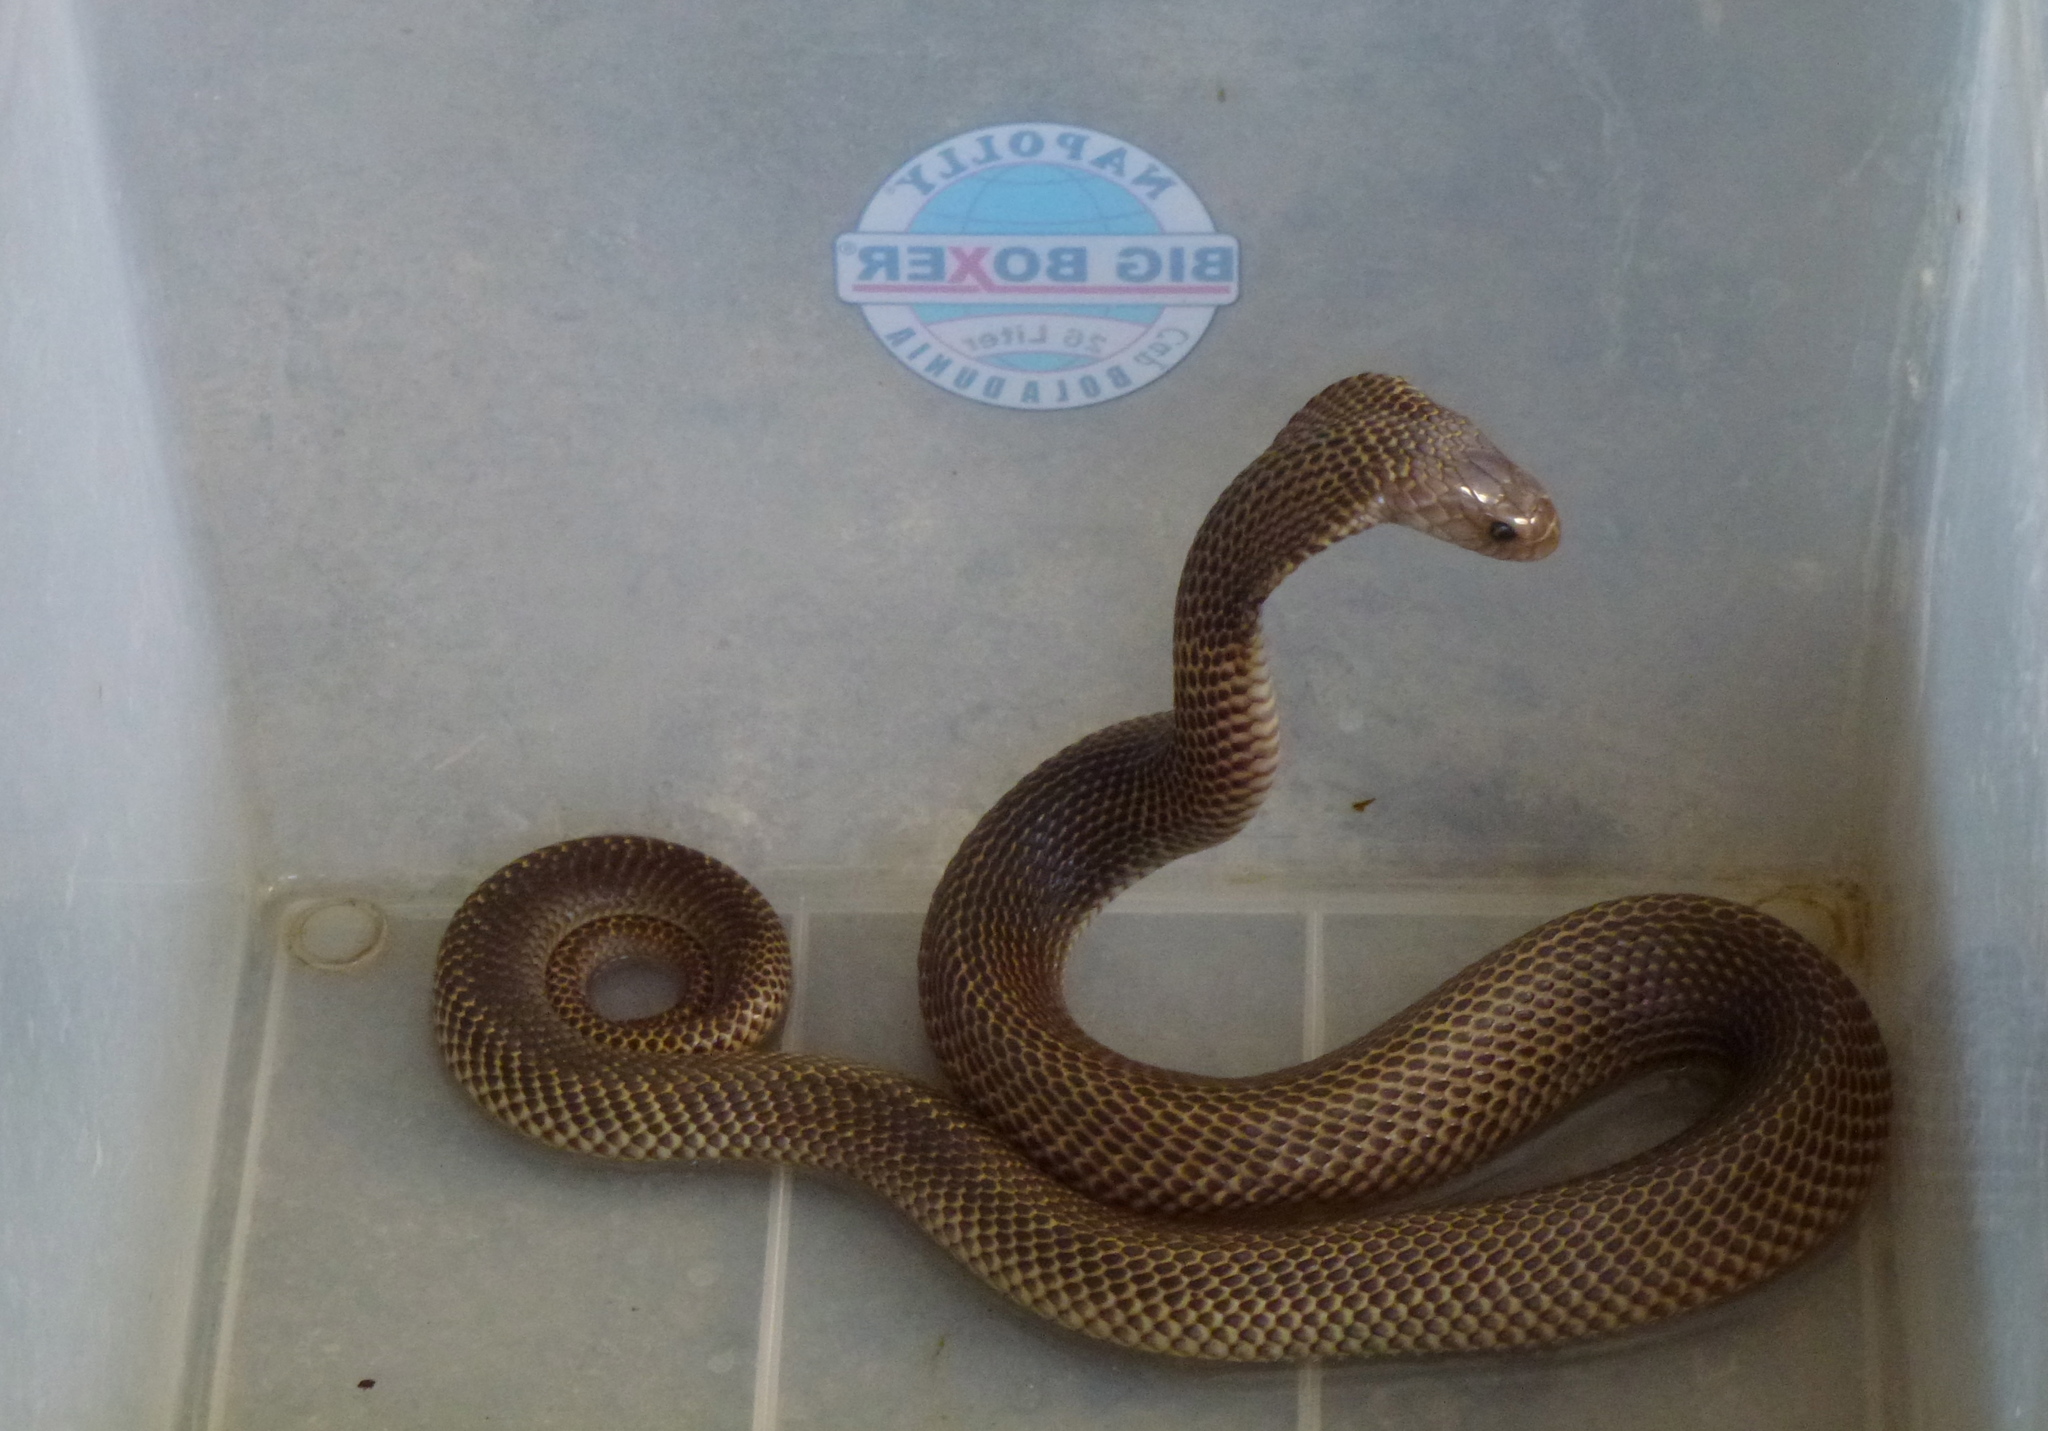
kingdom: Animalia
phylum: Chordata
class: Squamata
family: Elapidae
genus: Naja
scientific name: Naja sputatrix
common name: Javan spitting cobra
